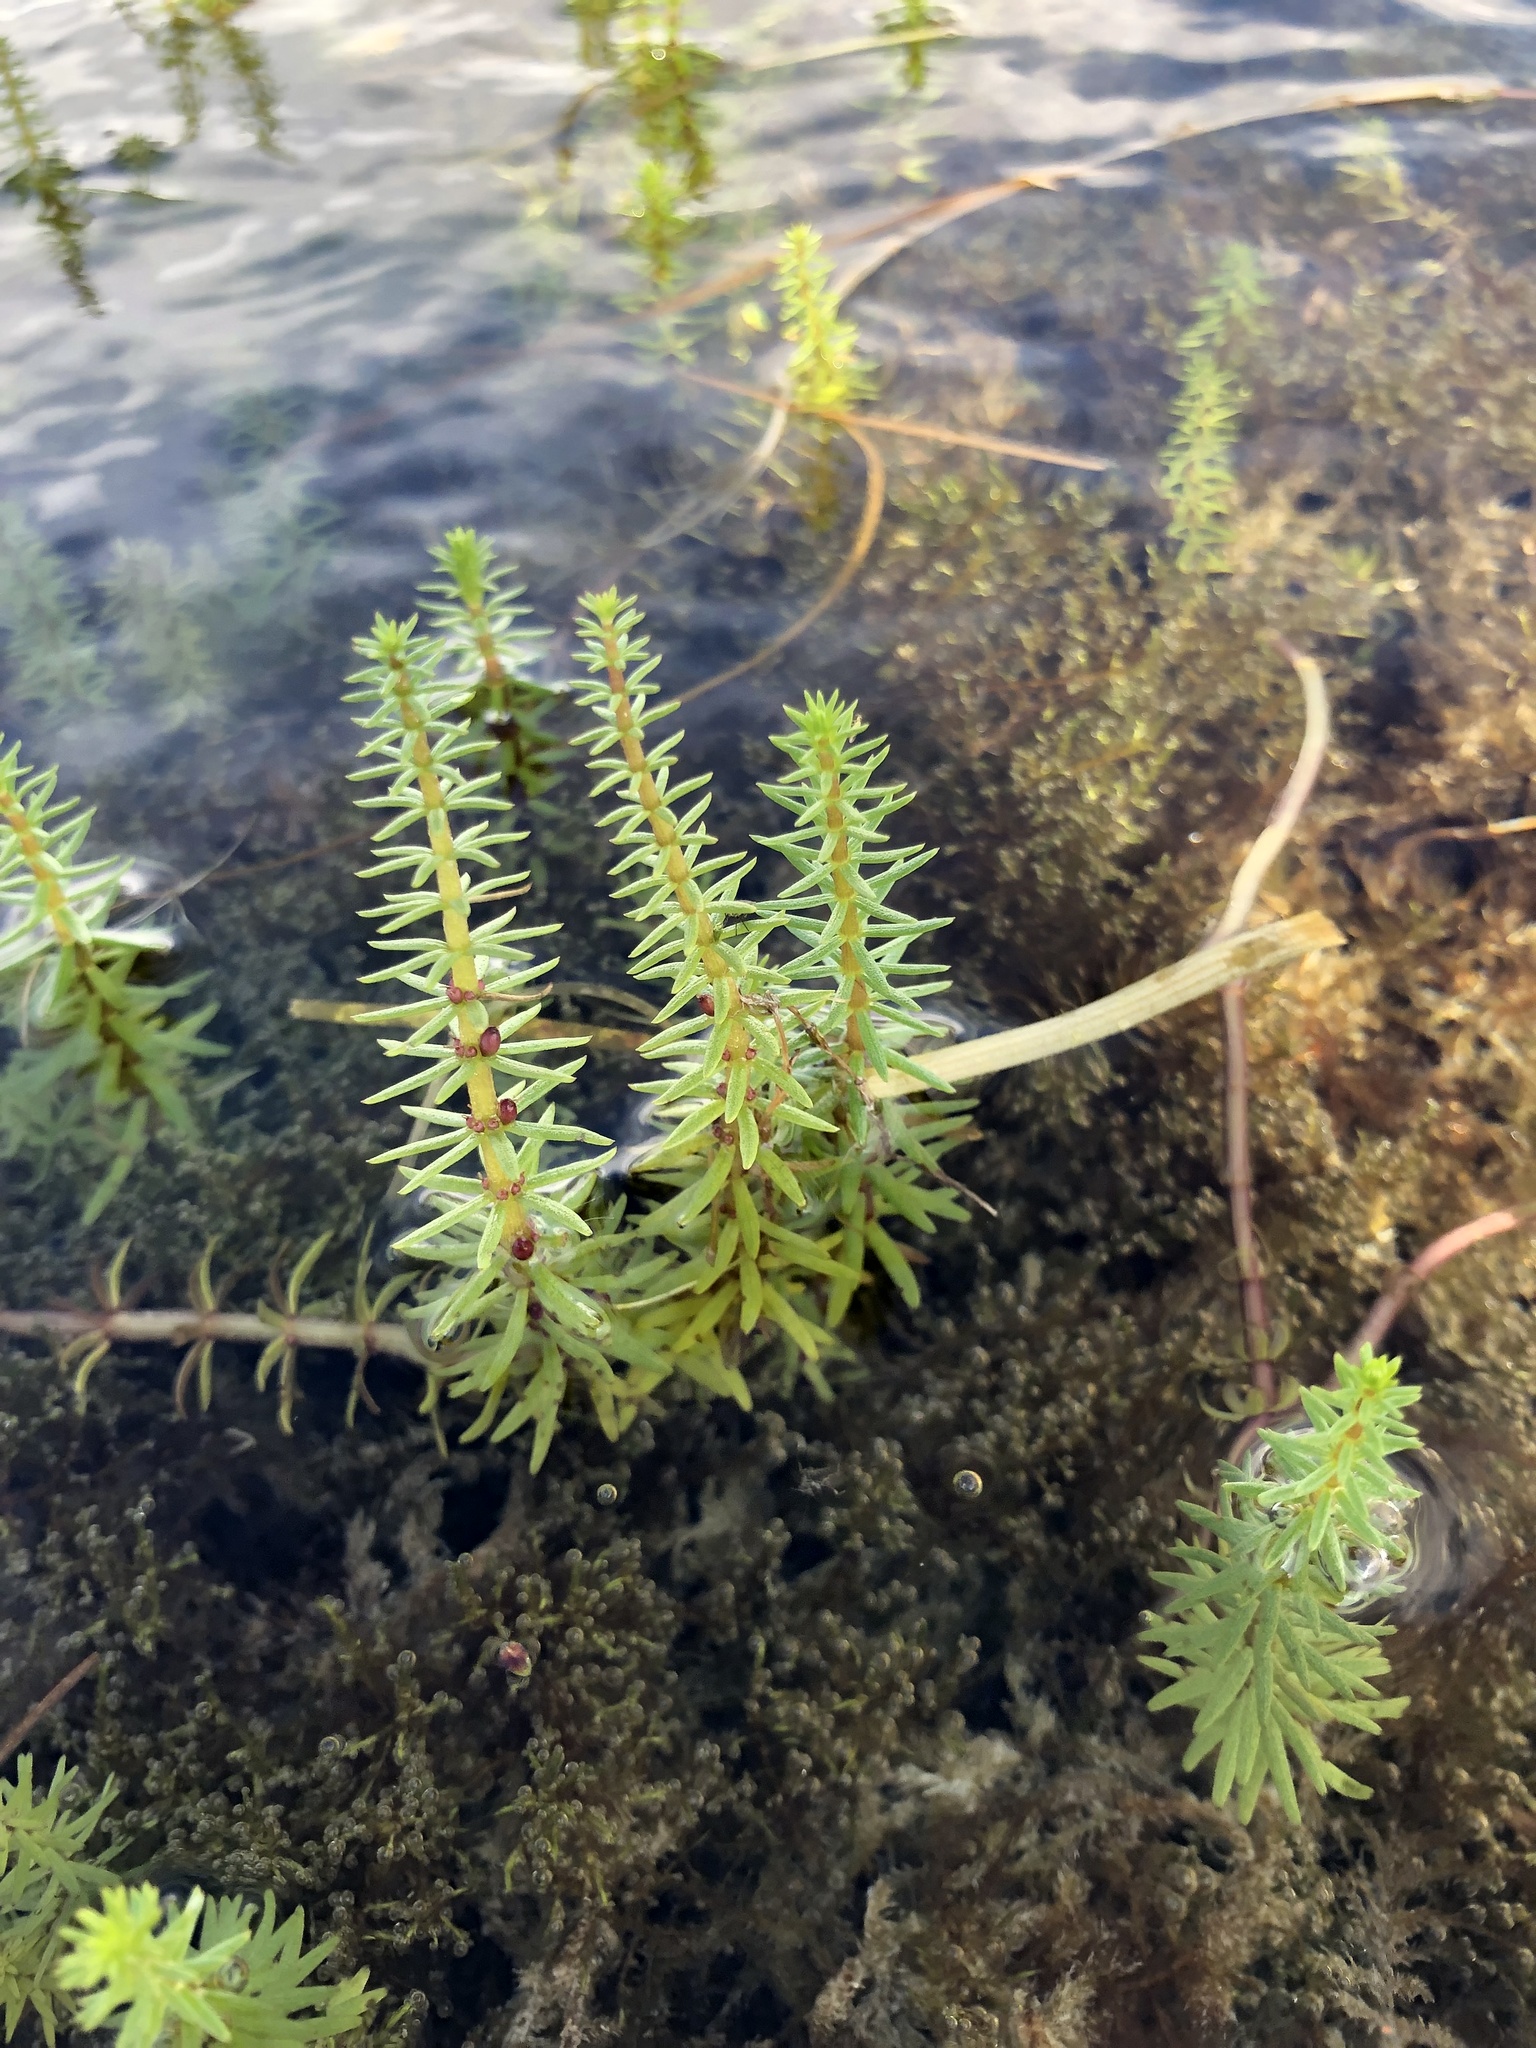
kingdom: Plantae
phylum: Tracheophyta
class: Magnoliopsida
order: Lamiales
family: Plantaginaceae
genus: Hippuris
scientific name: Hippuris vulgaris
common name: Mare's-tail
